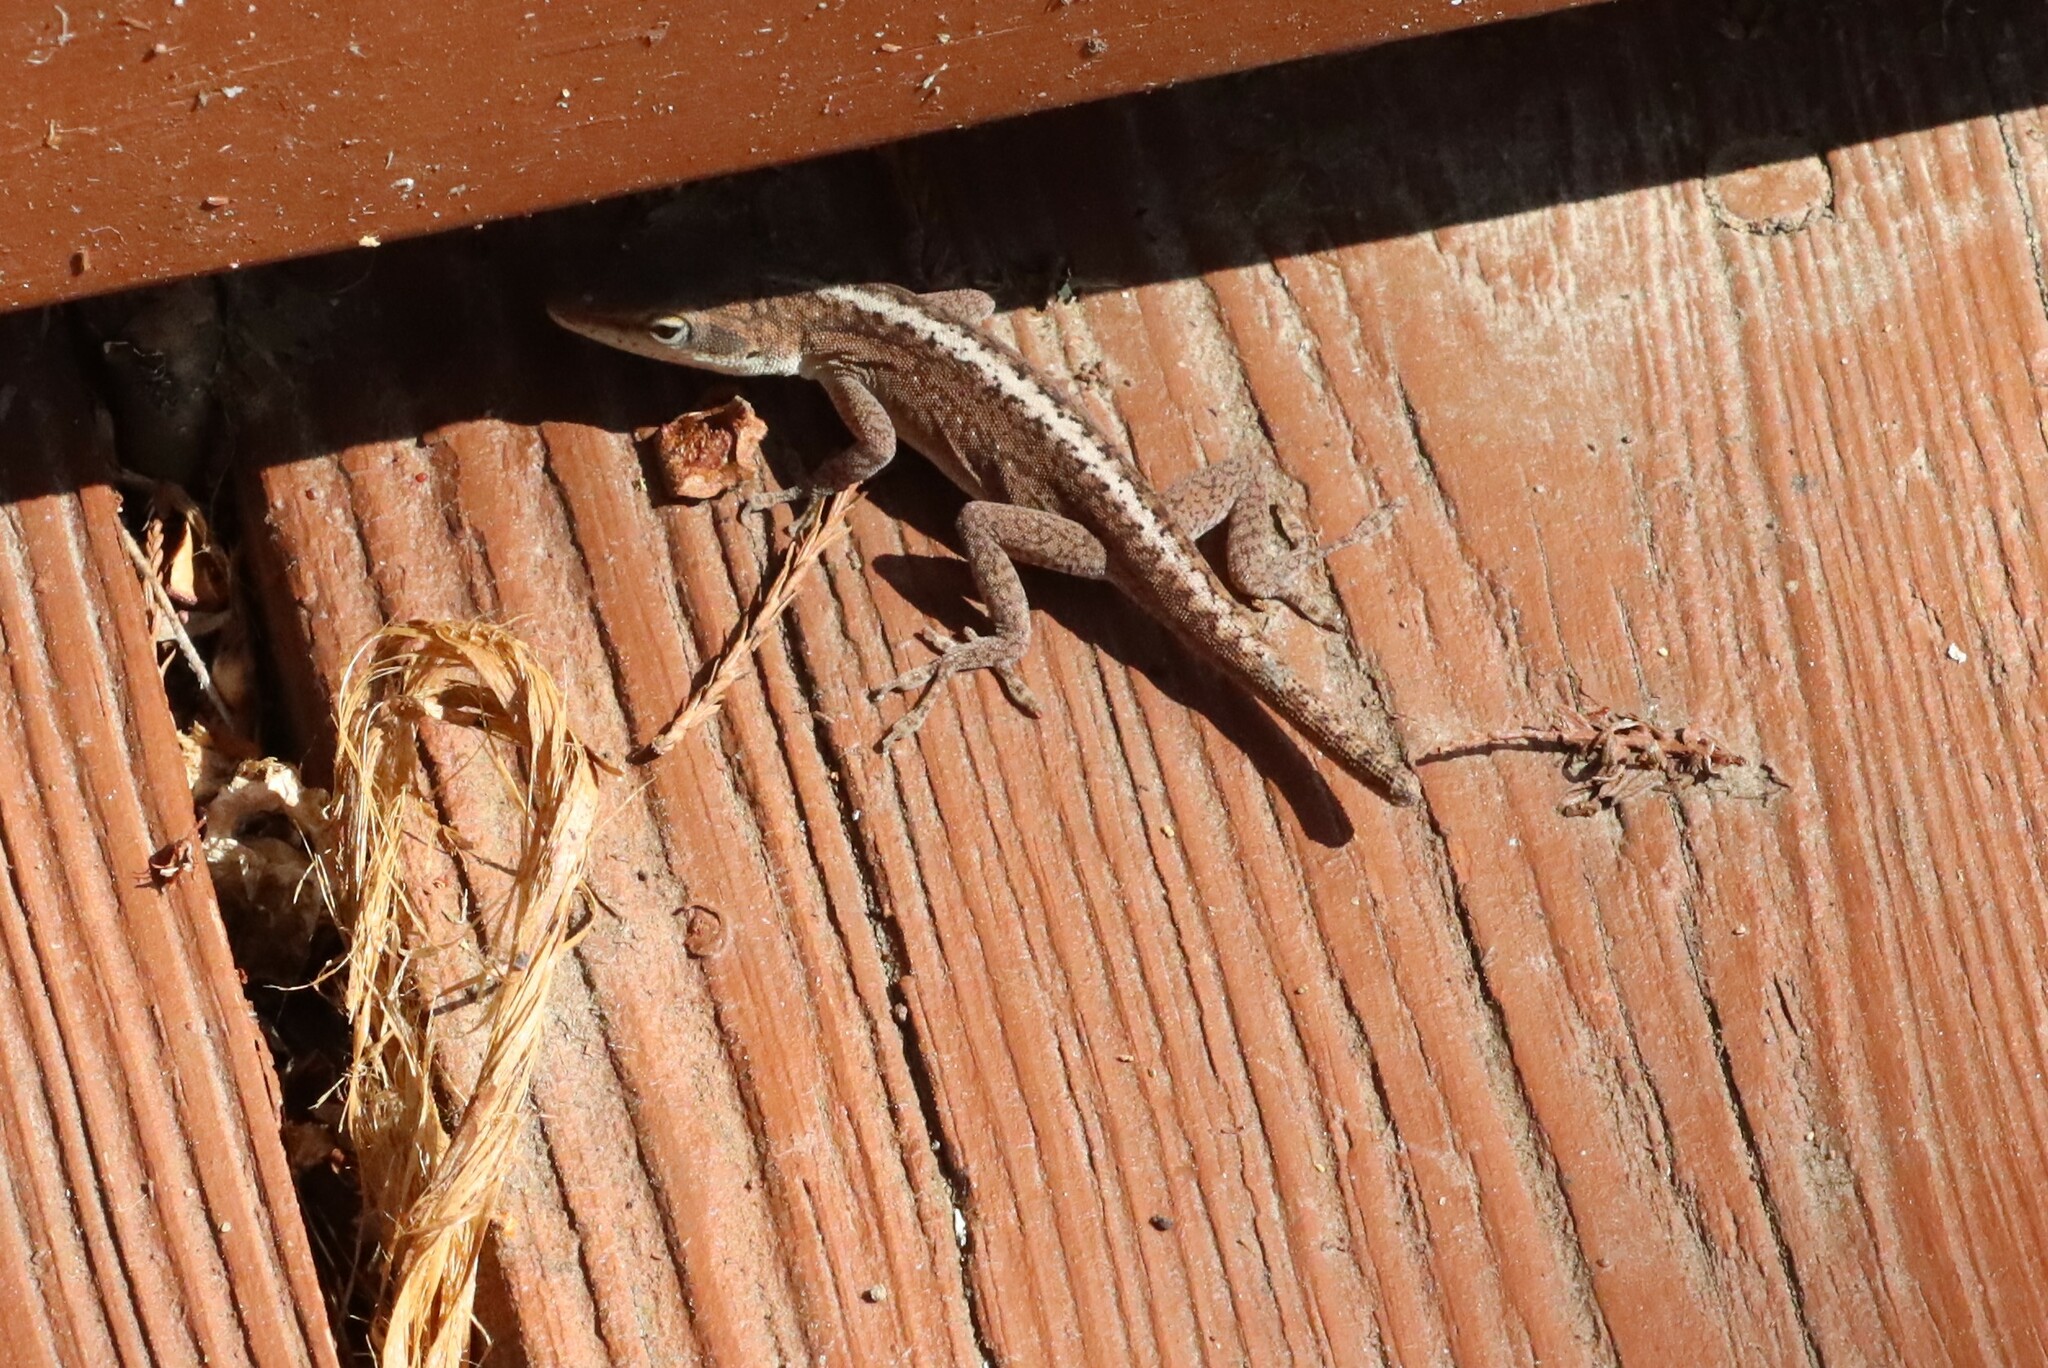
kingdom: Animalia
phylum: Chordata
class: Squamata
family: Dactyloidae
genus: Anolis
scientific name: Anolis carolinensis
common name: Green anole
